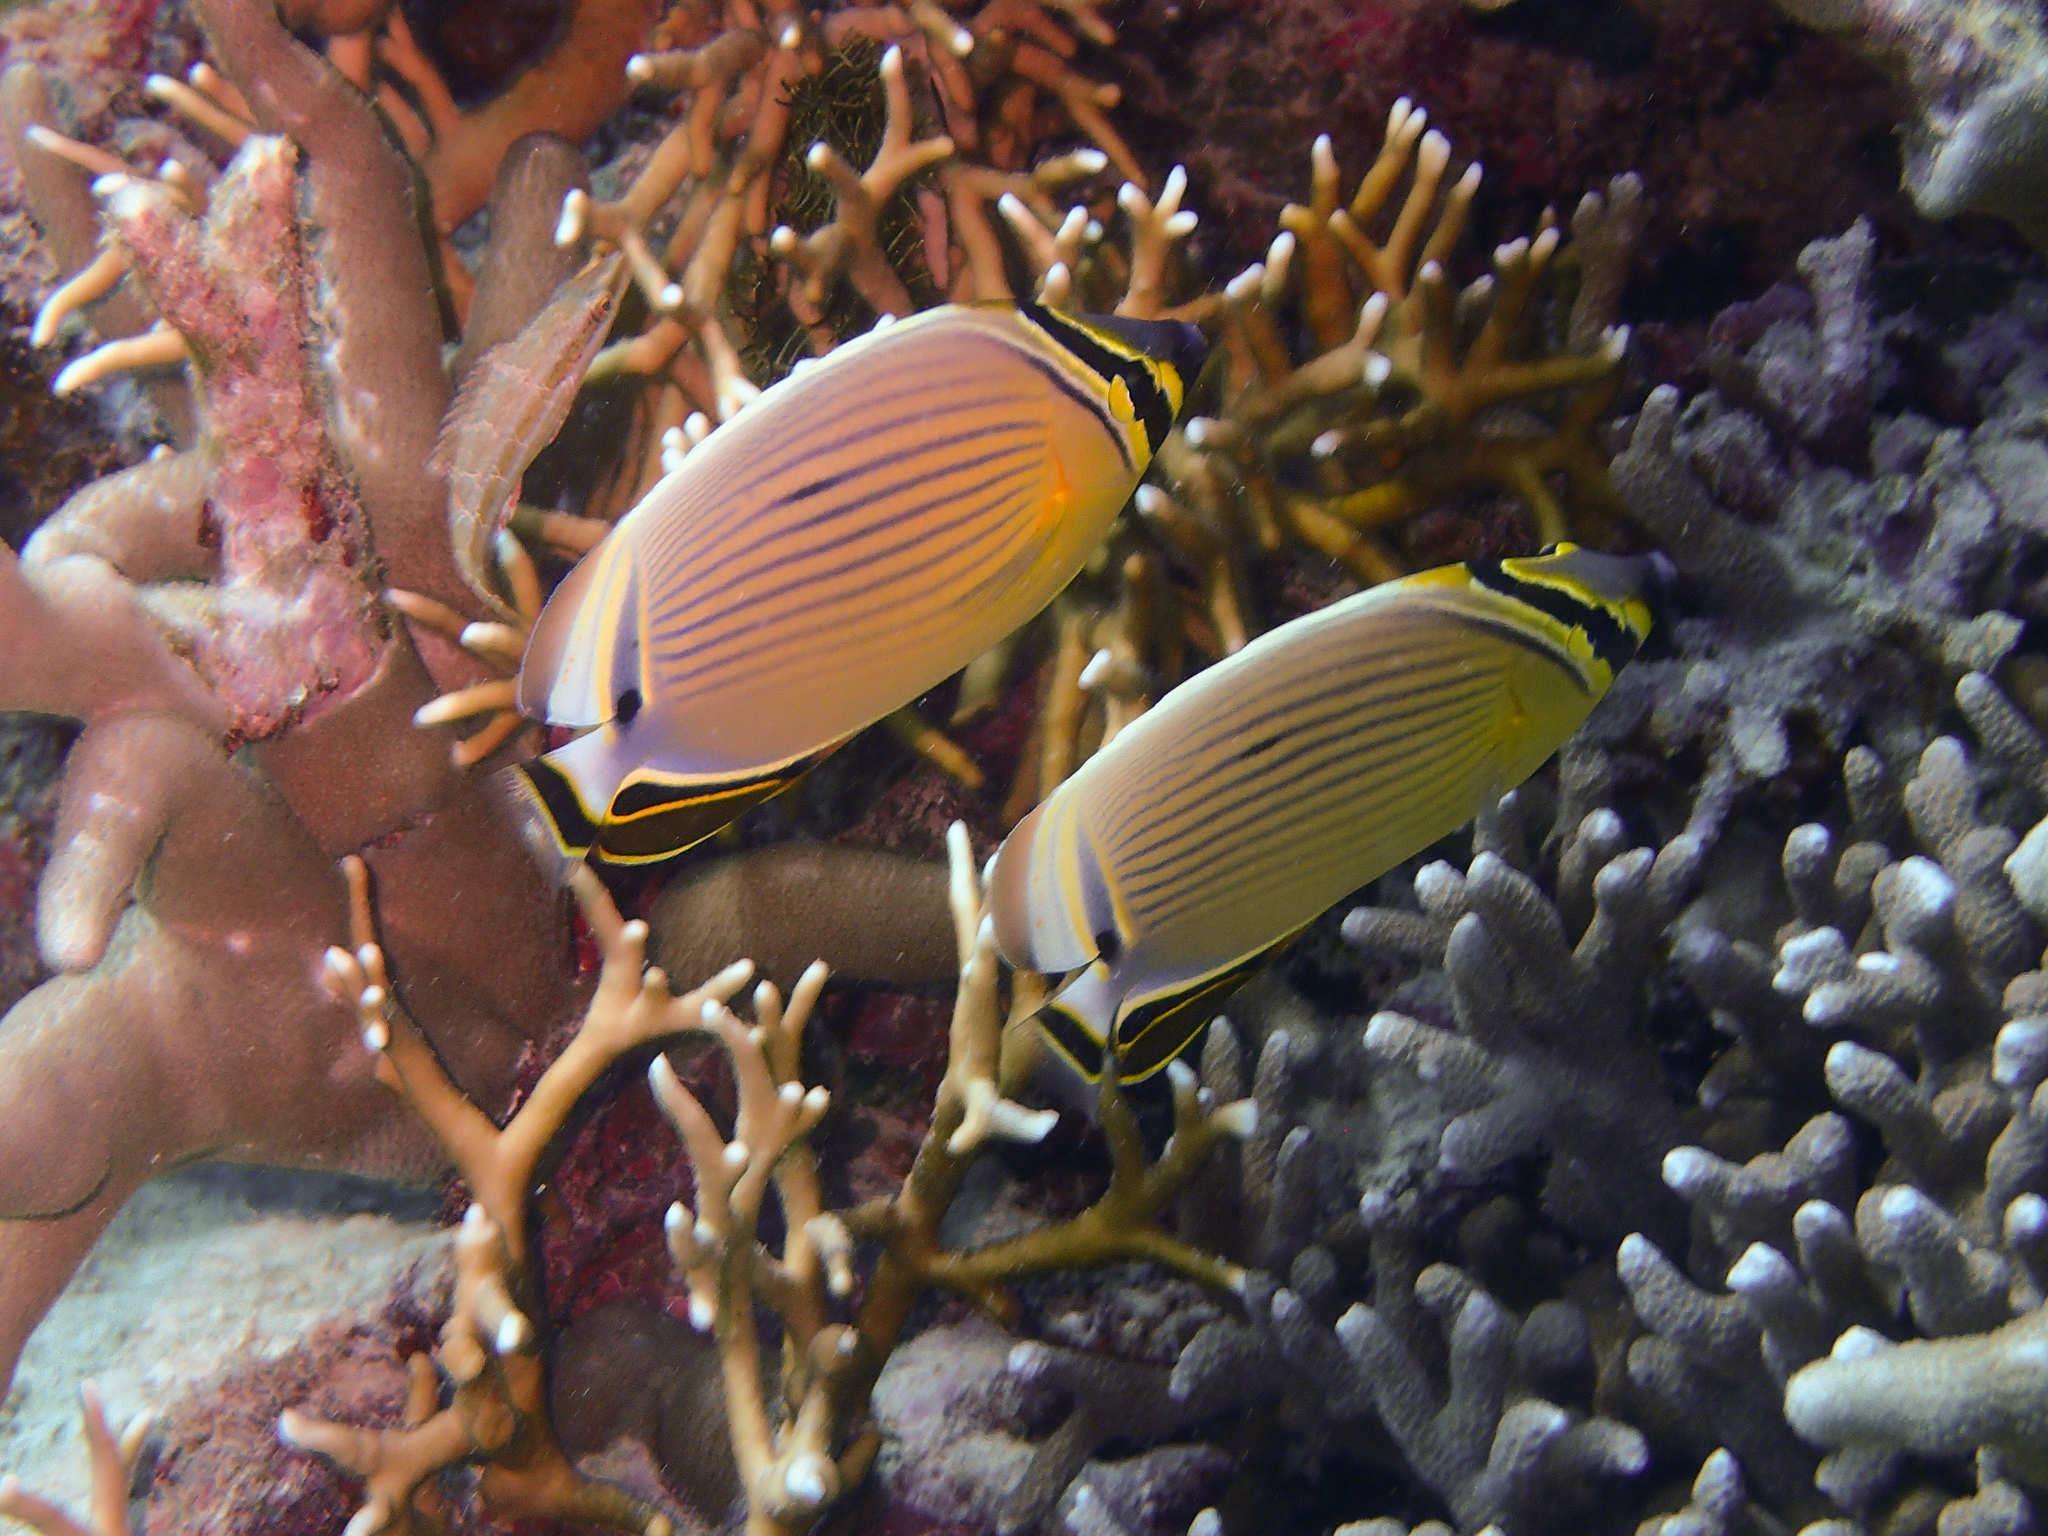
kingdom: Animalia
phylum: Chordata
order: Perciformes
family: Chaetodontidae
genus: Chaetodon
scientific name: Chaetodon lunulatus
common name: Redfin butterflyfish
